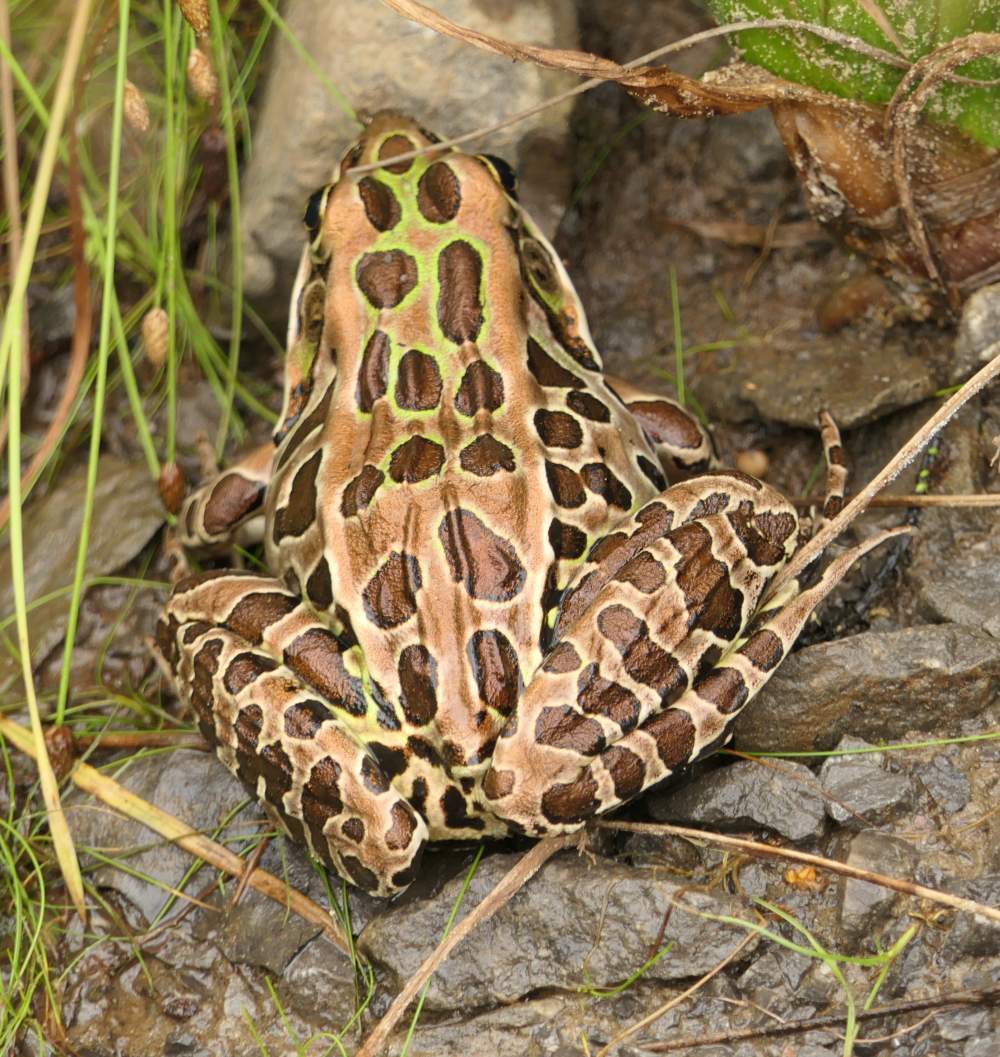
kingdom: Animalia
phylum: Chordata
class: Amphibia
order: Anura
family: Ranidae
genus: Lithobates
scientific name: Lithobates pipiens
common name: Northern leopard frog
